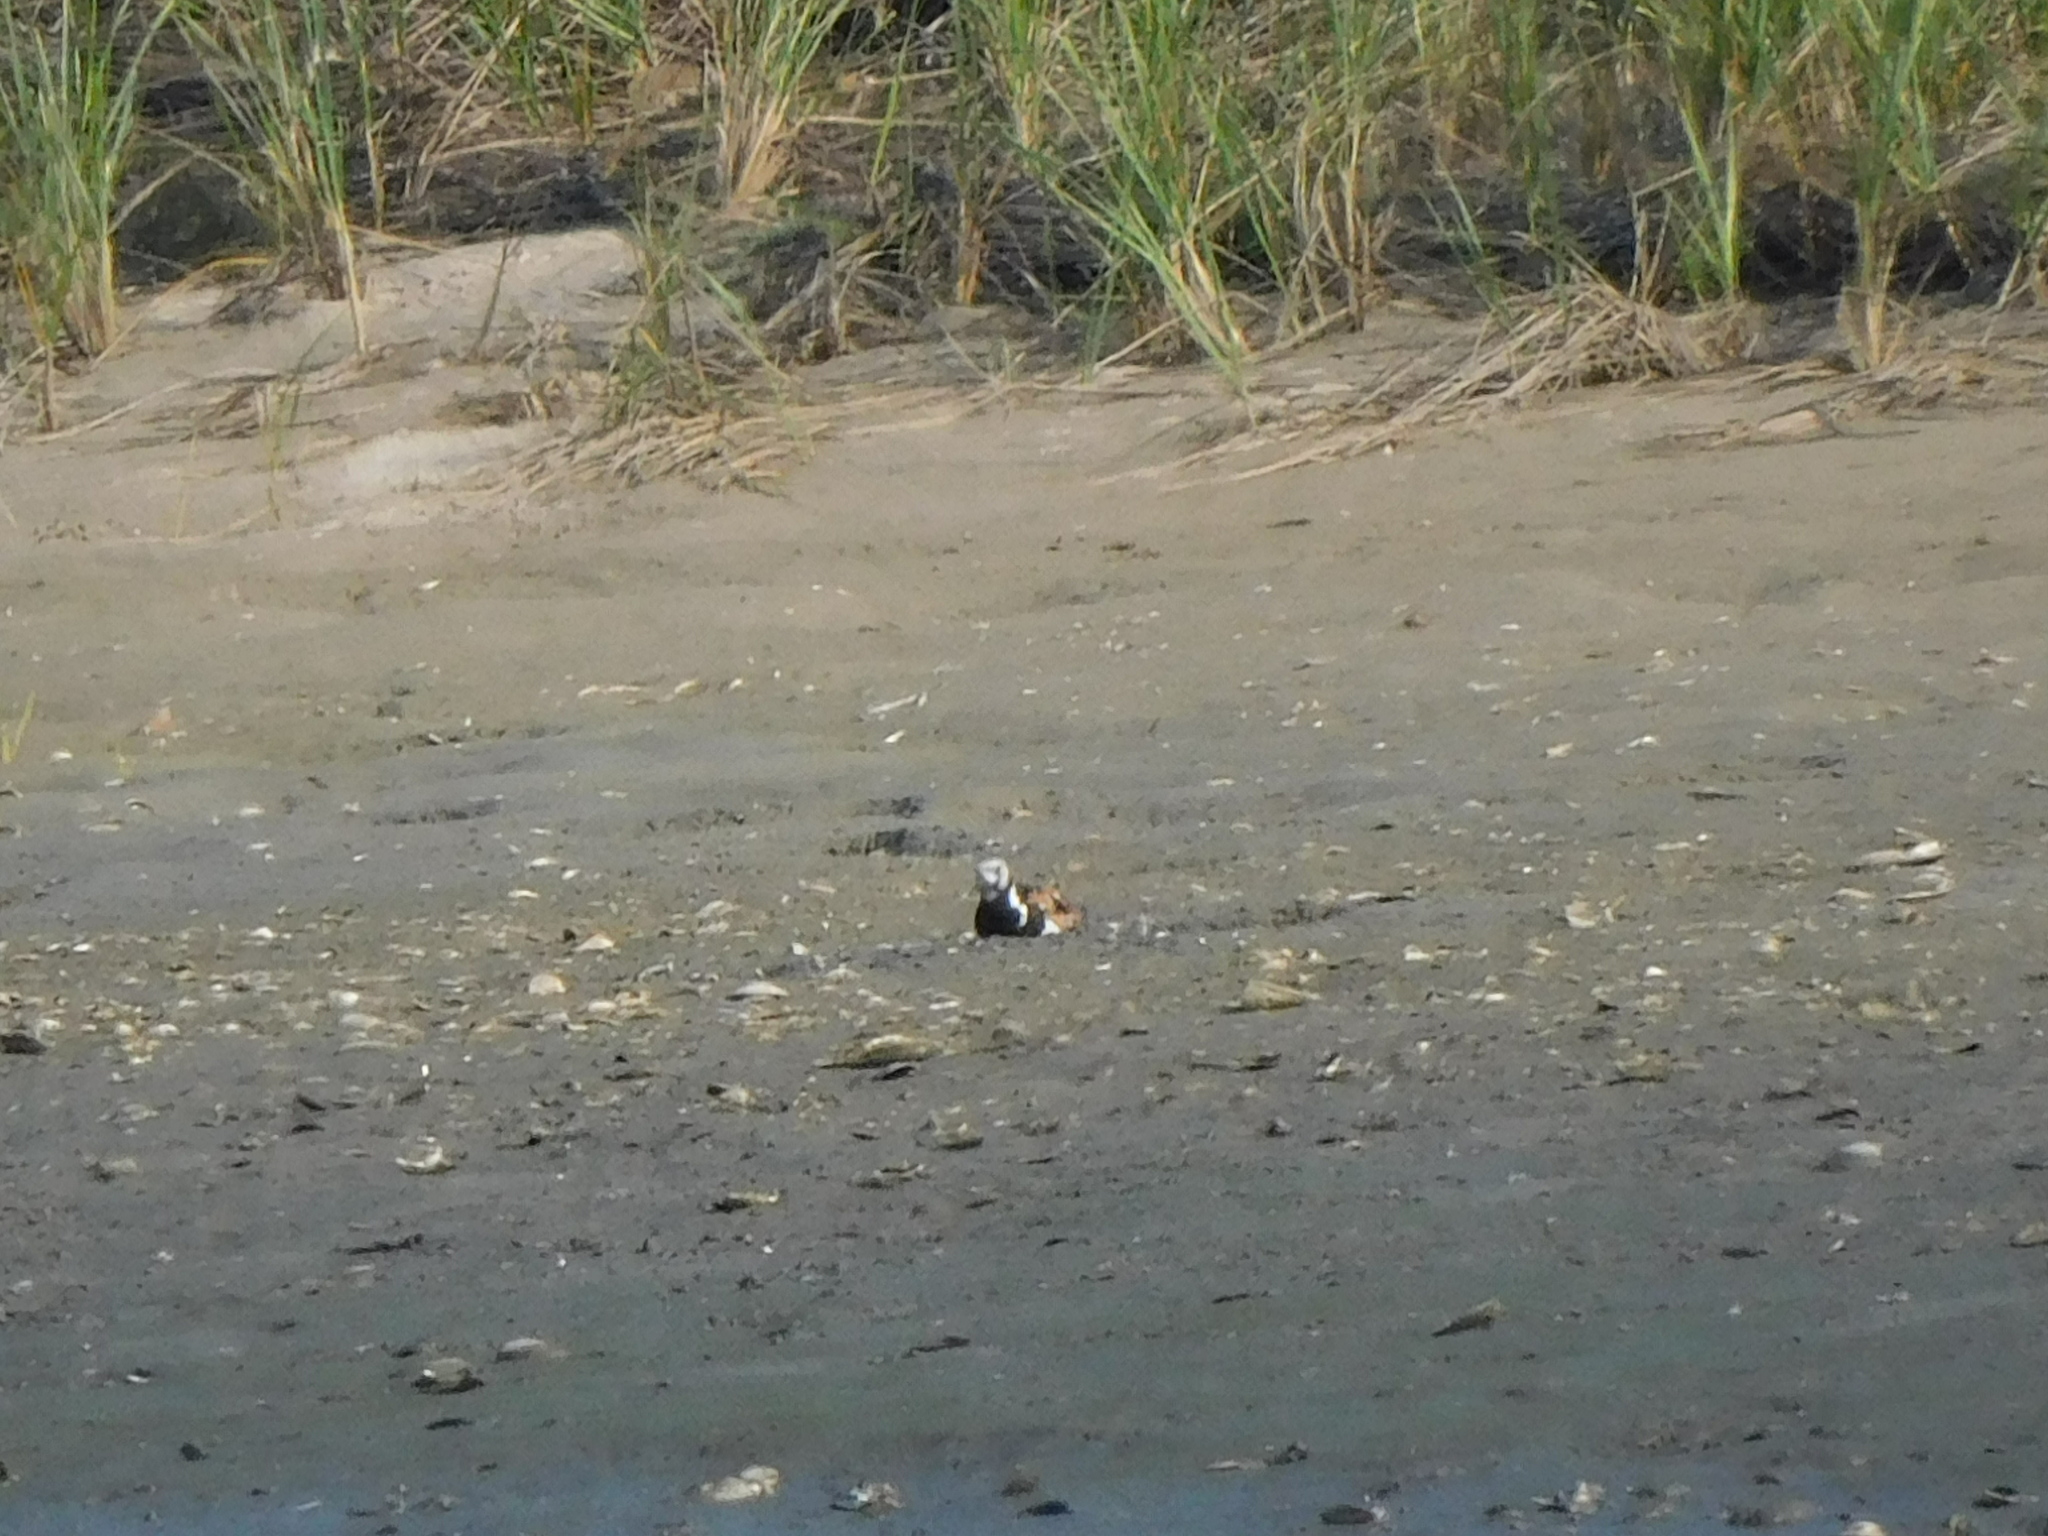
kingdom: Animalia
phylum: Chordata
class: Aves
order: Charadriiformes
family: Scolopacidae
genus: Arenaria
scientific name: Arenaria interpres
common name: Ruddy turnstone
